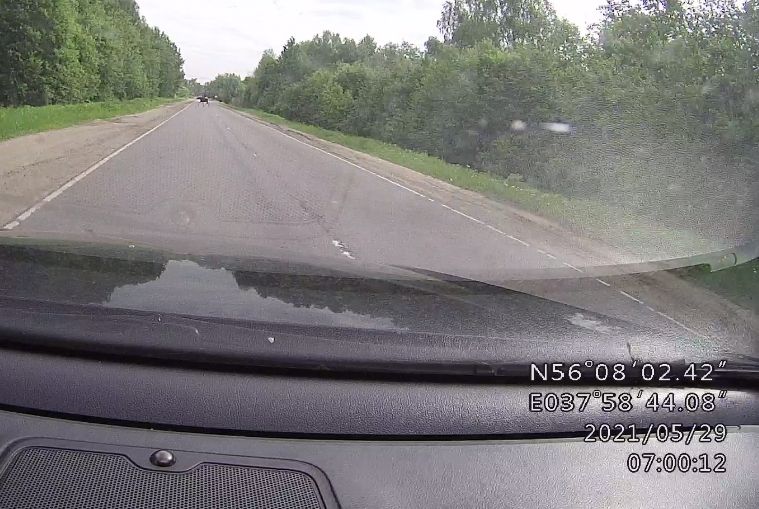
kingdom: Animalia
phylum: Chordata
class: Mammalia
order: Artiodactyla
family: Cervidae
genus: Alces
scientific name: Alces alces
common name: Moose
